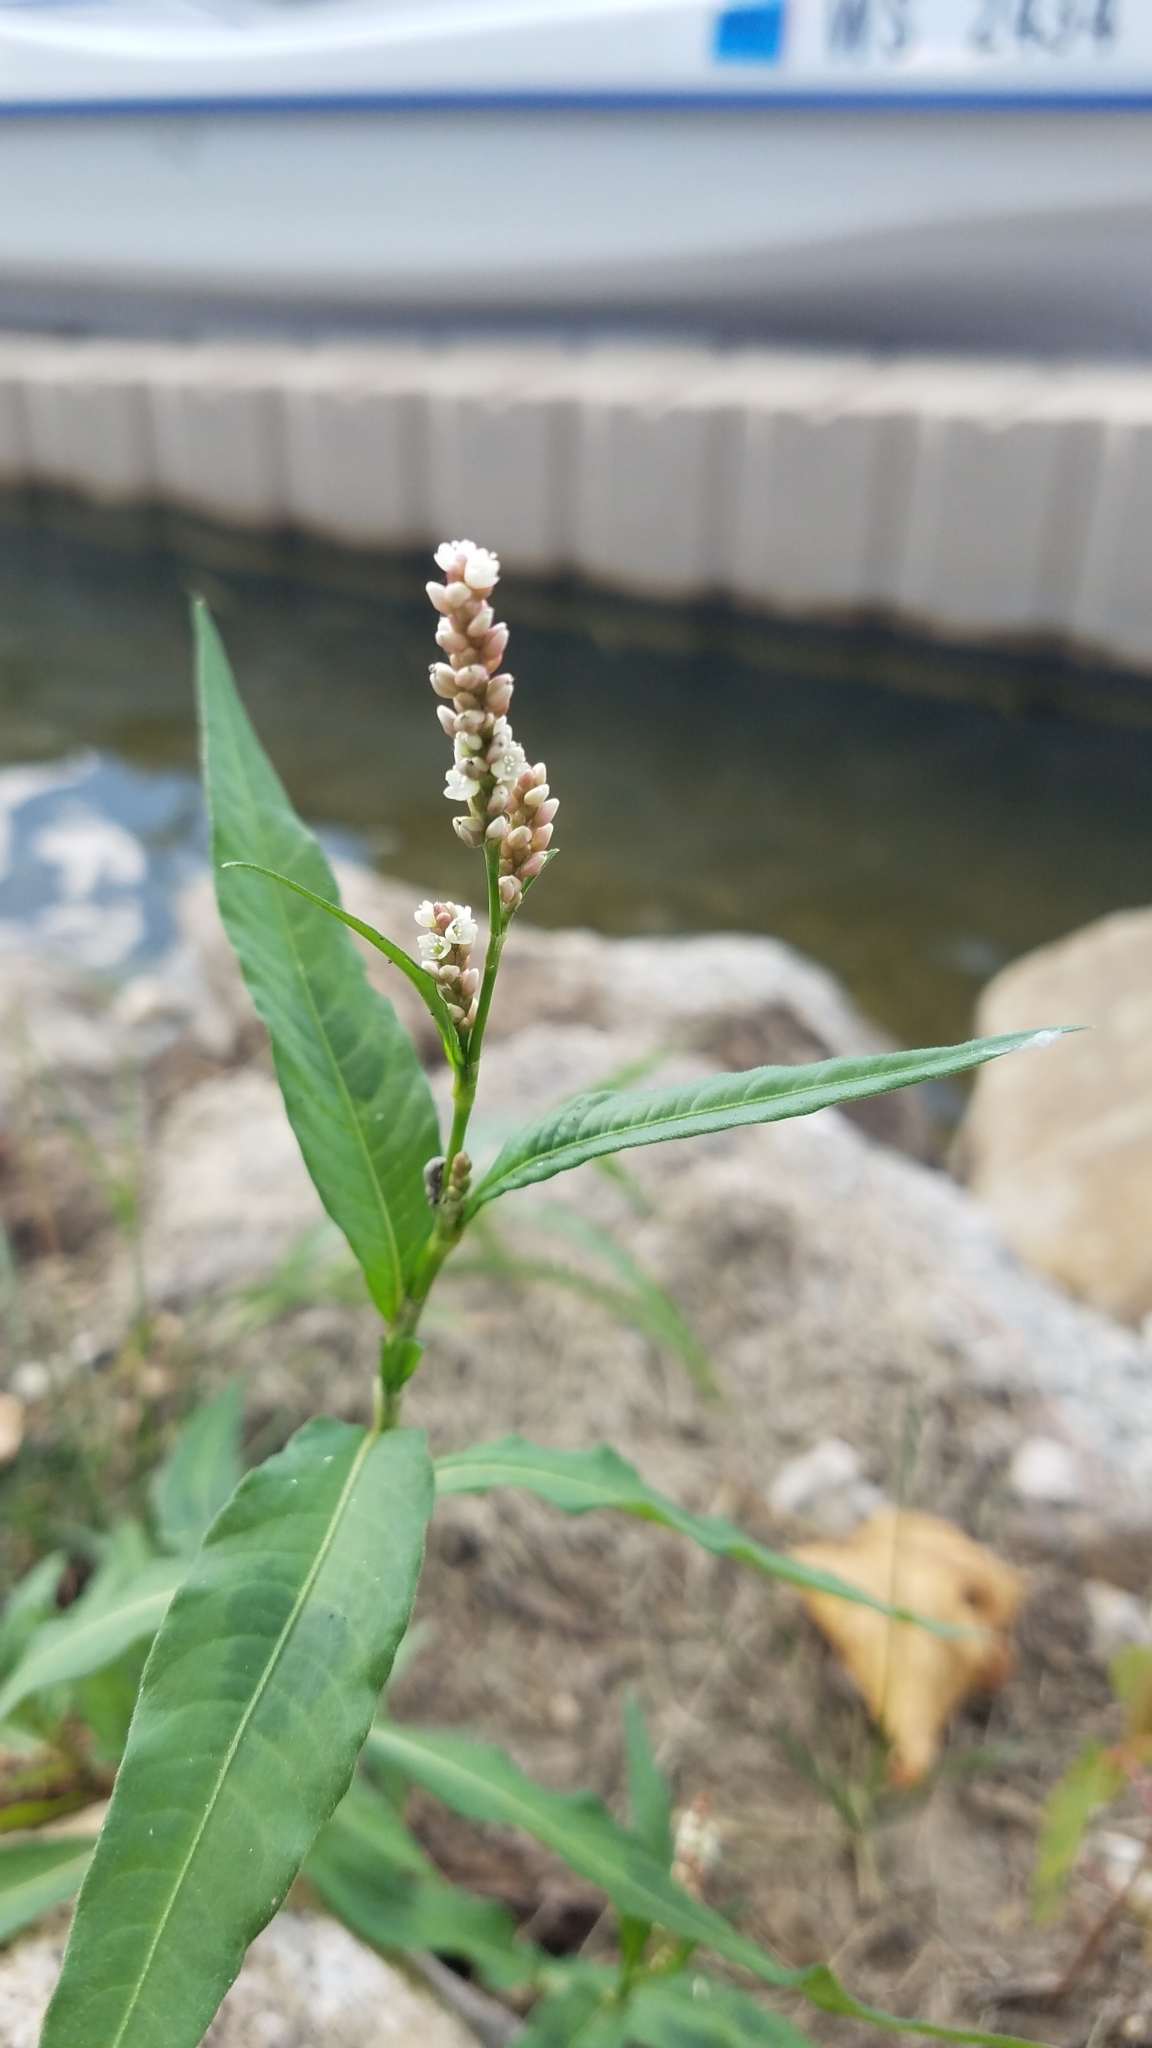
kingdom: Plantae
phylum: Tracheophyta
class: Magnoliopsida
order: Caryophyllales
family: Polygonaceae
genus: Persicaria
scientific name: Persicaria maculosa
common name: Redshank
